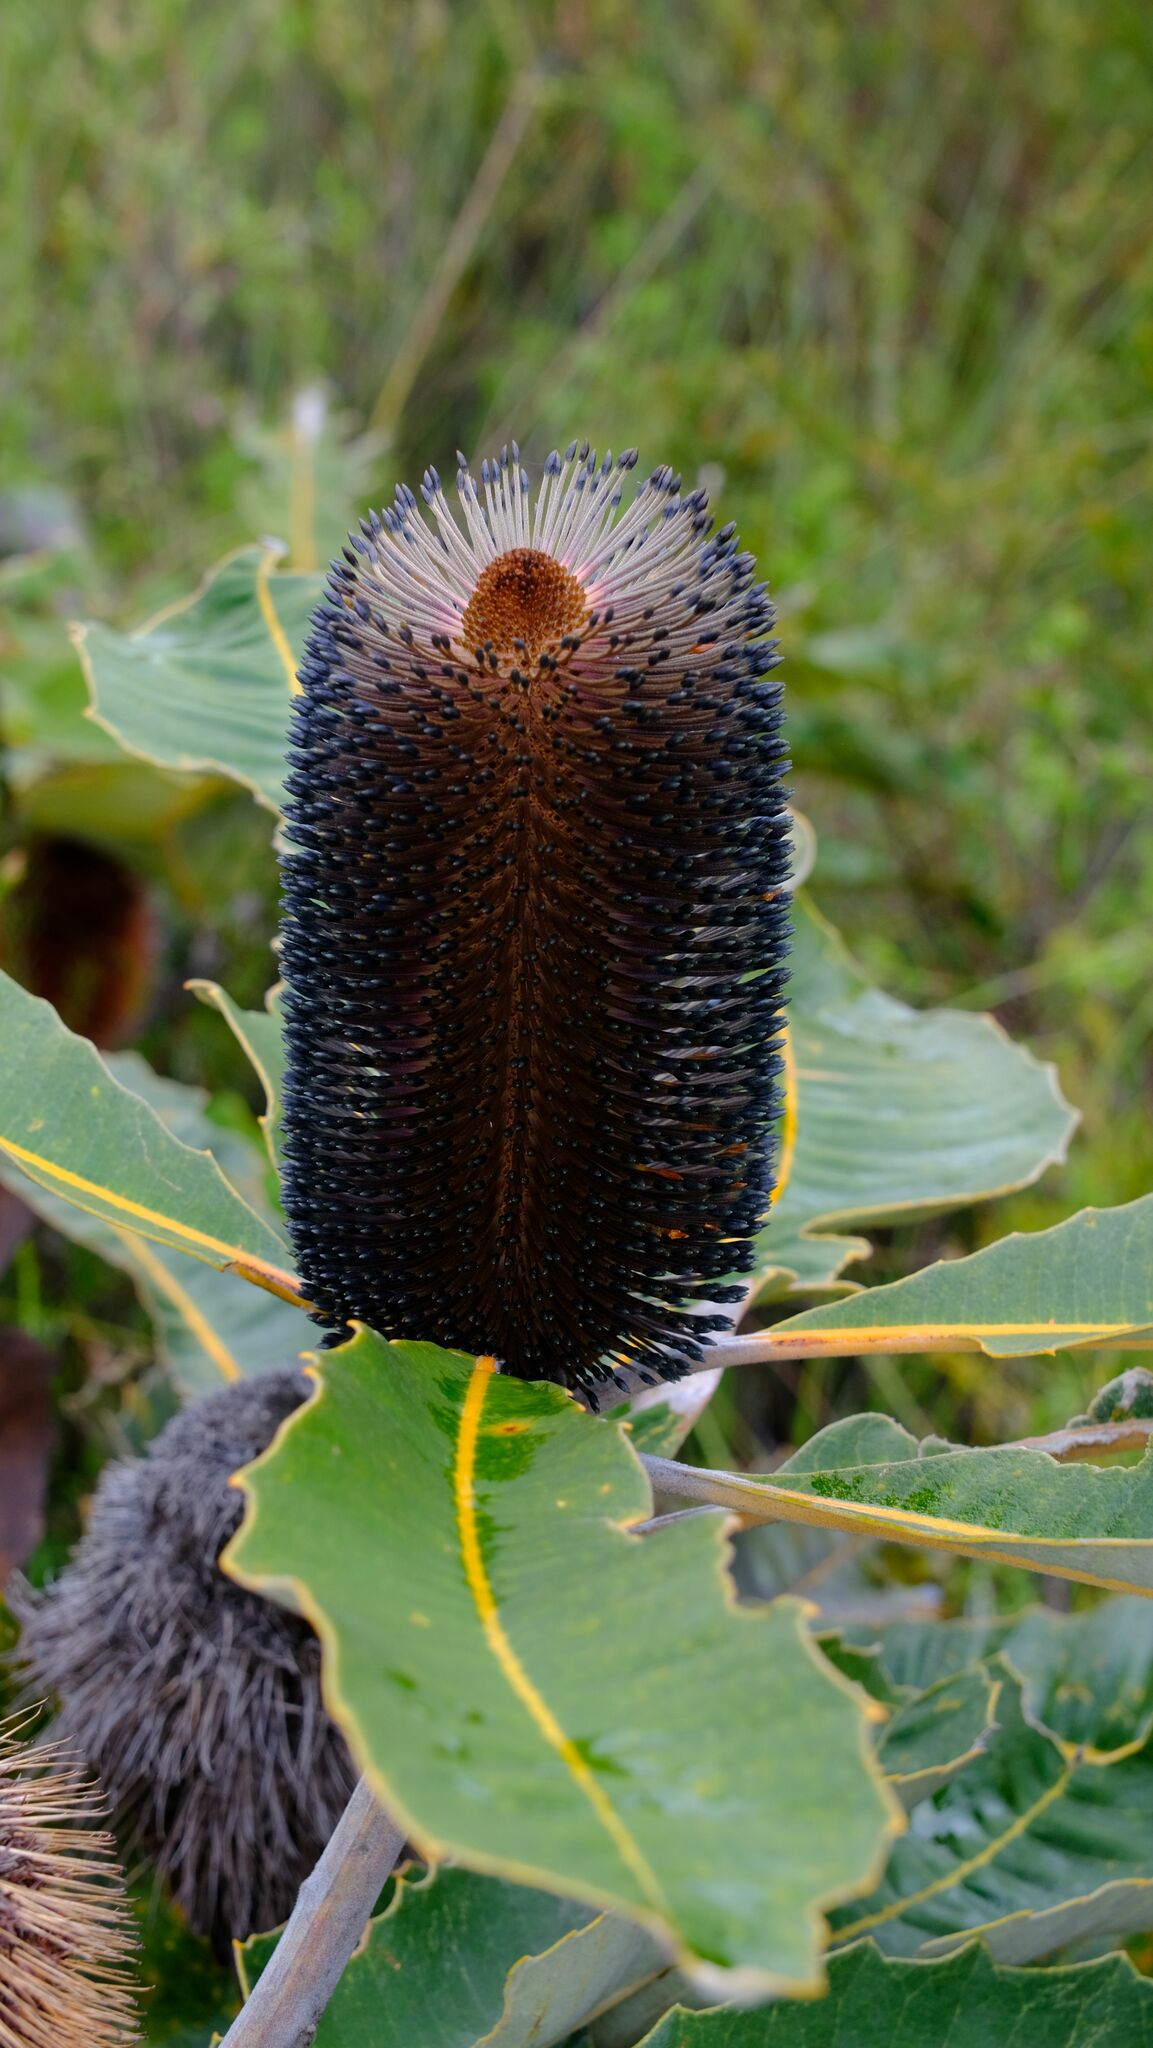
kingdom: Plantae
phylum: Tracheophyta
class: Magnoliopsida
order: Proteales
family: Proteaceae
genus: Banksia
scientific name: Banksia robur
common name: Broadleaf banksia
